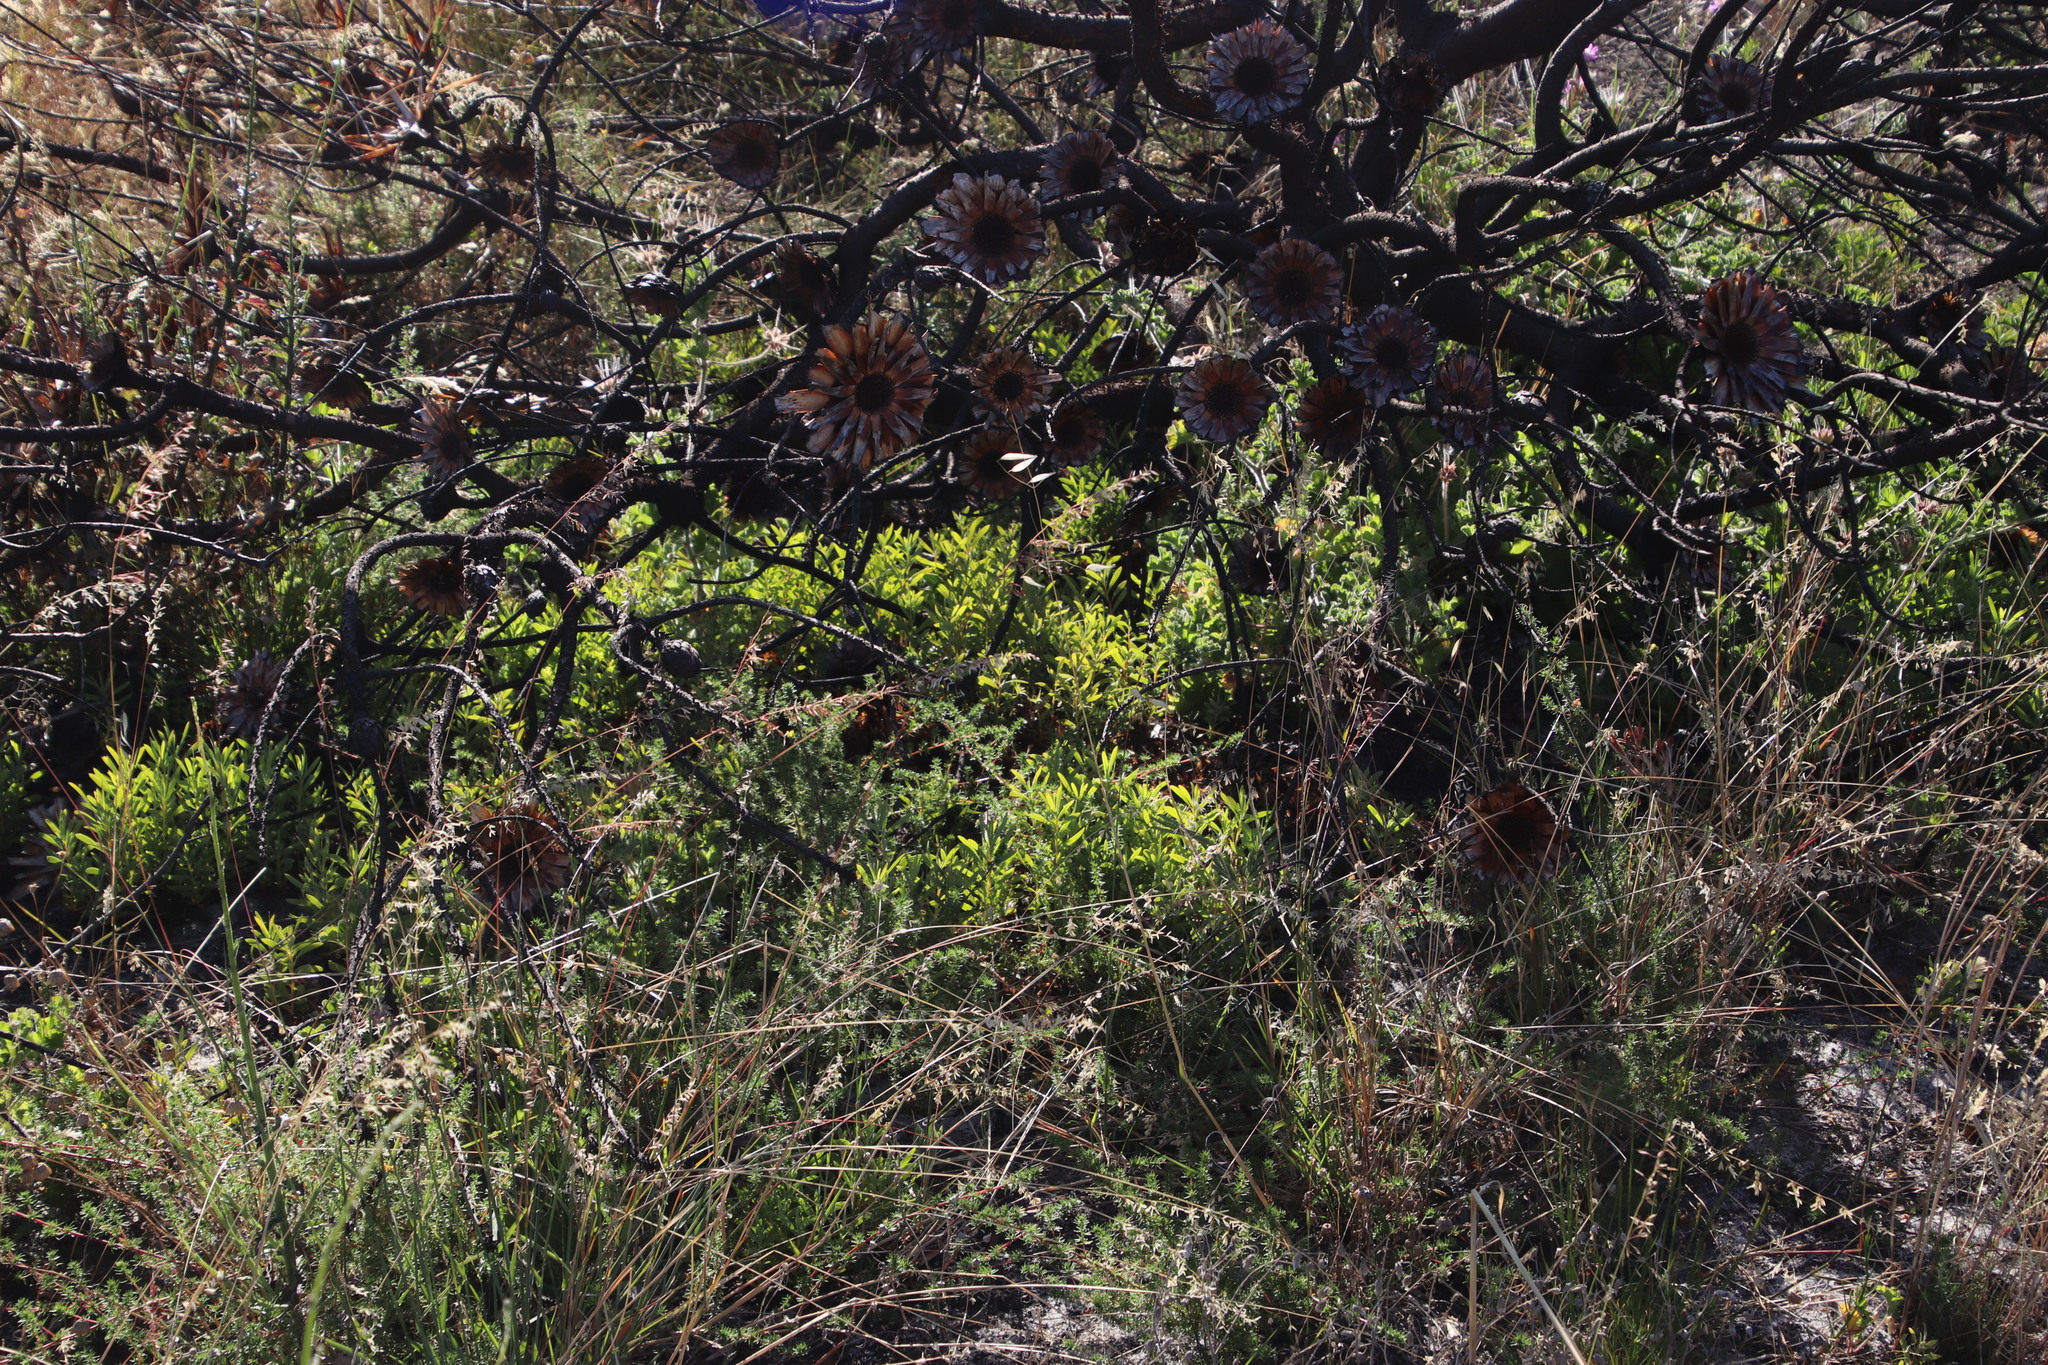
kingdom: Plantae
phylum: Tracheophyta
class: Magnoliopsida
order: Proteales
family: Proteaceae
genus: Protea
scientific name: Protea repens
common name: Sugarbush
